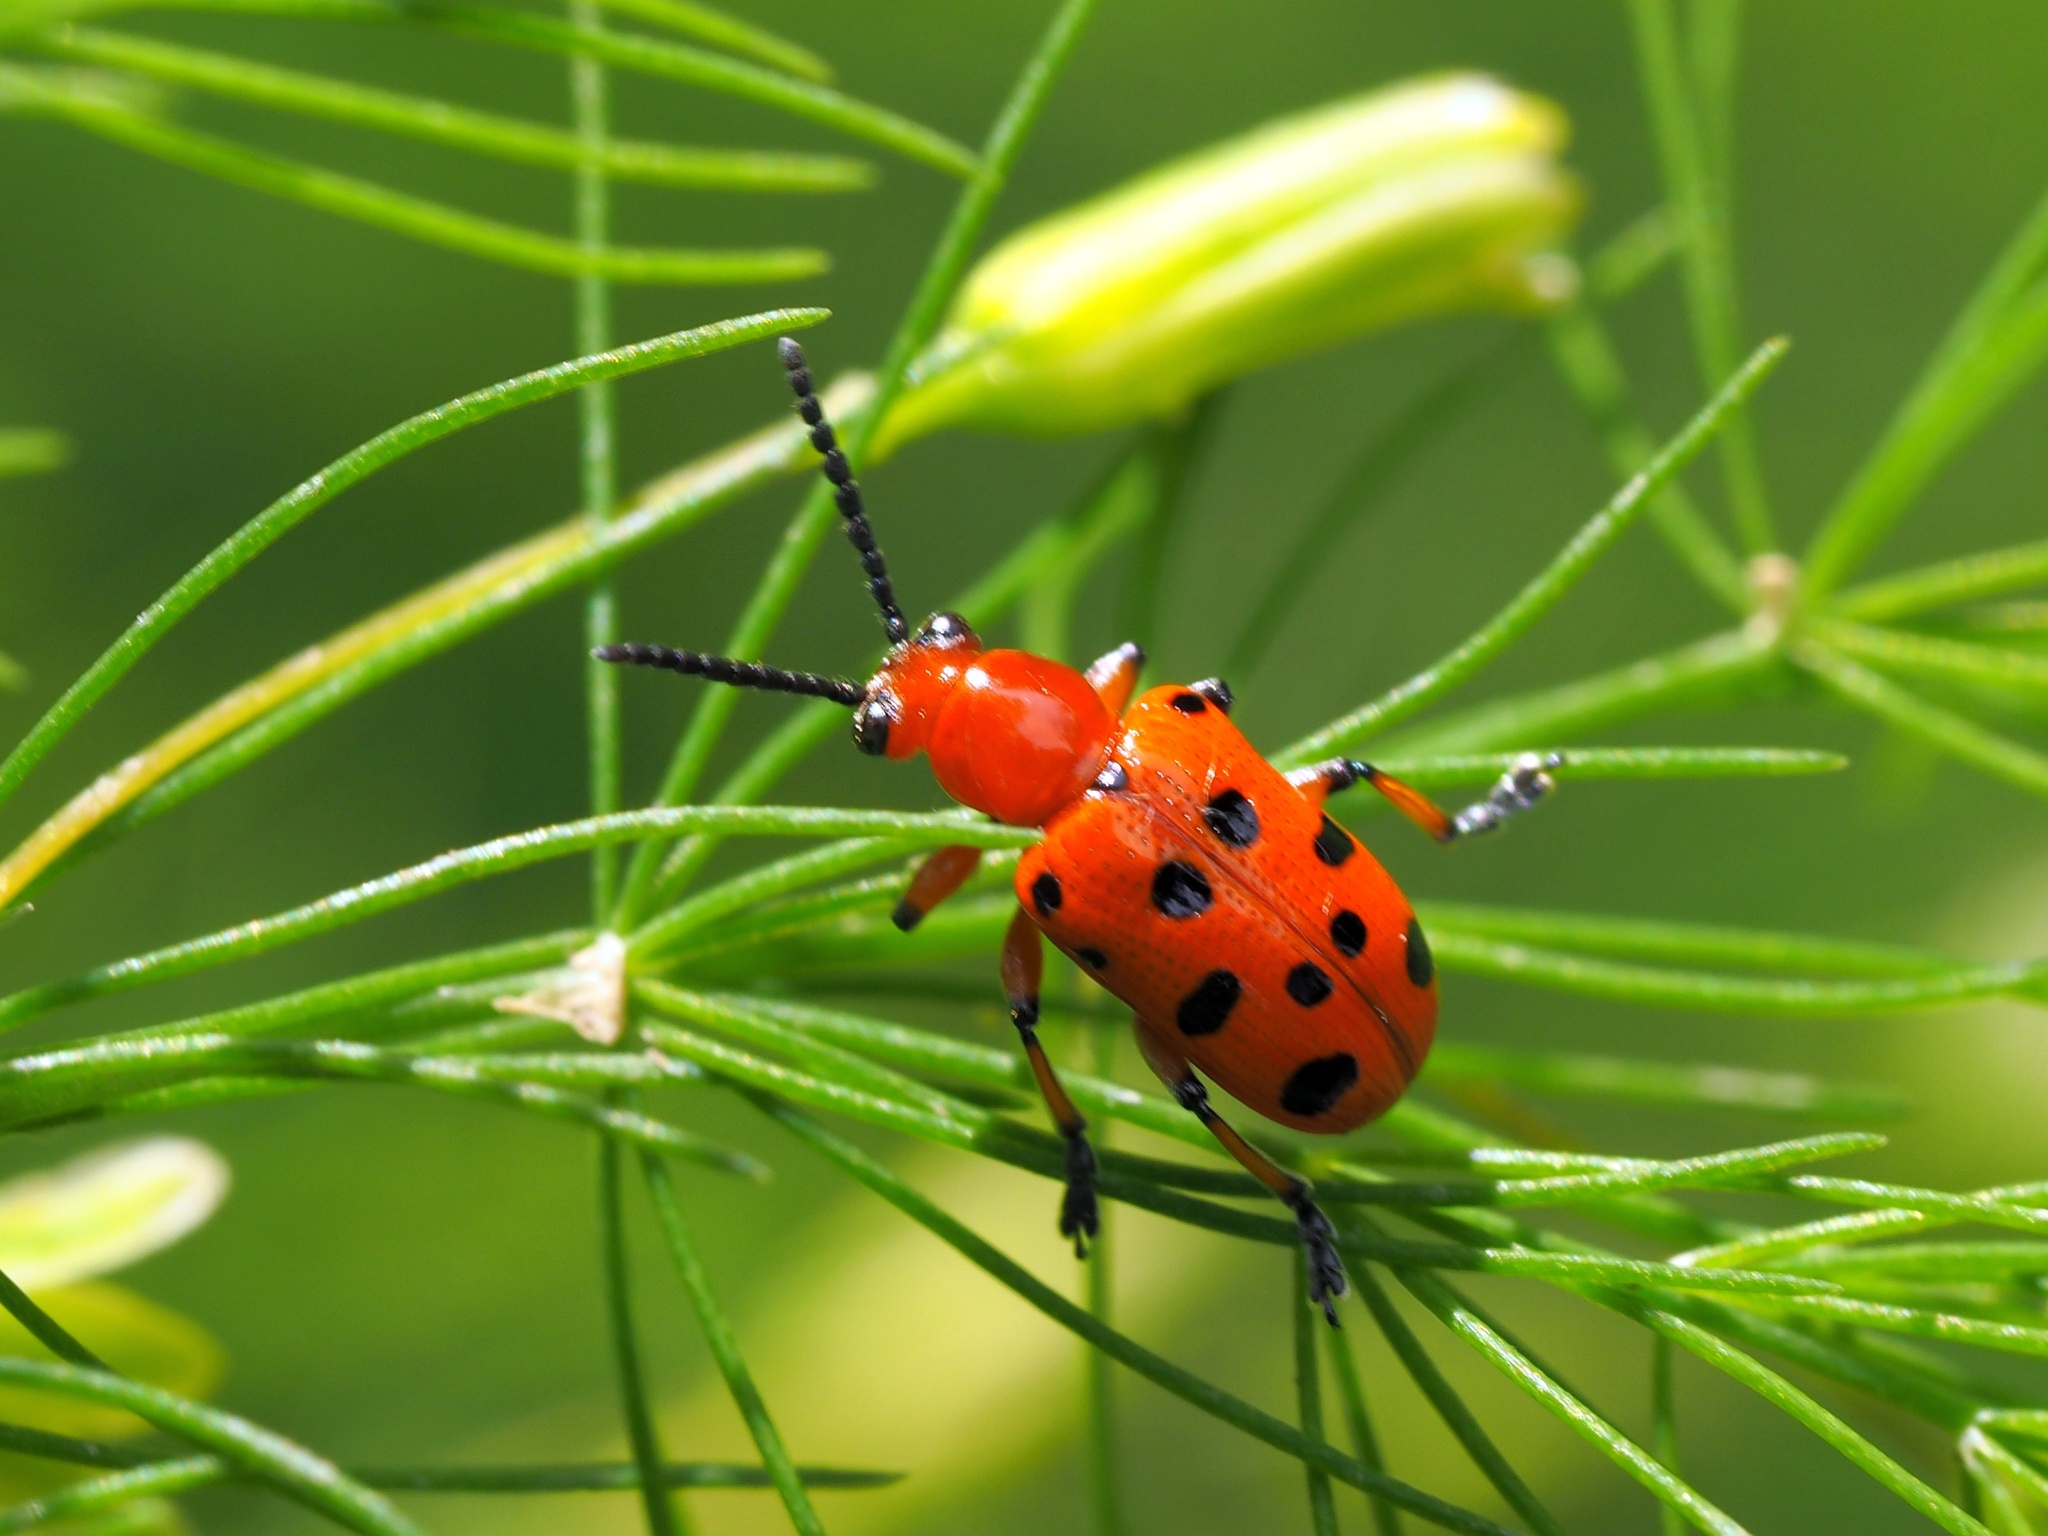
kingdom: Animalia
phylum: Arthropoda
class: Insecta
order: Coleoptera
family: Chrysomelidae
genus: Crioceris
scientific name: Crioceris duodecimpunctata
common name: Twelve-spotted asparagus beetle
